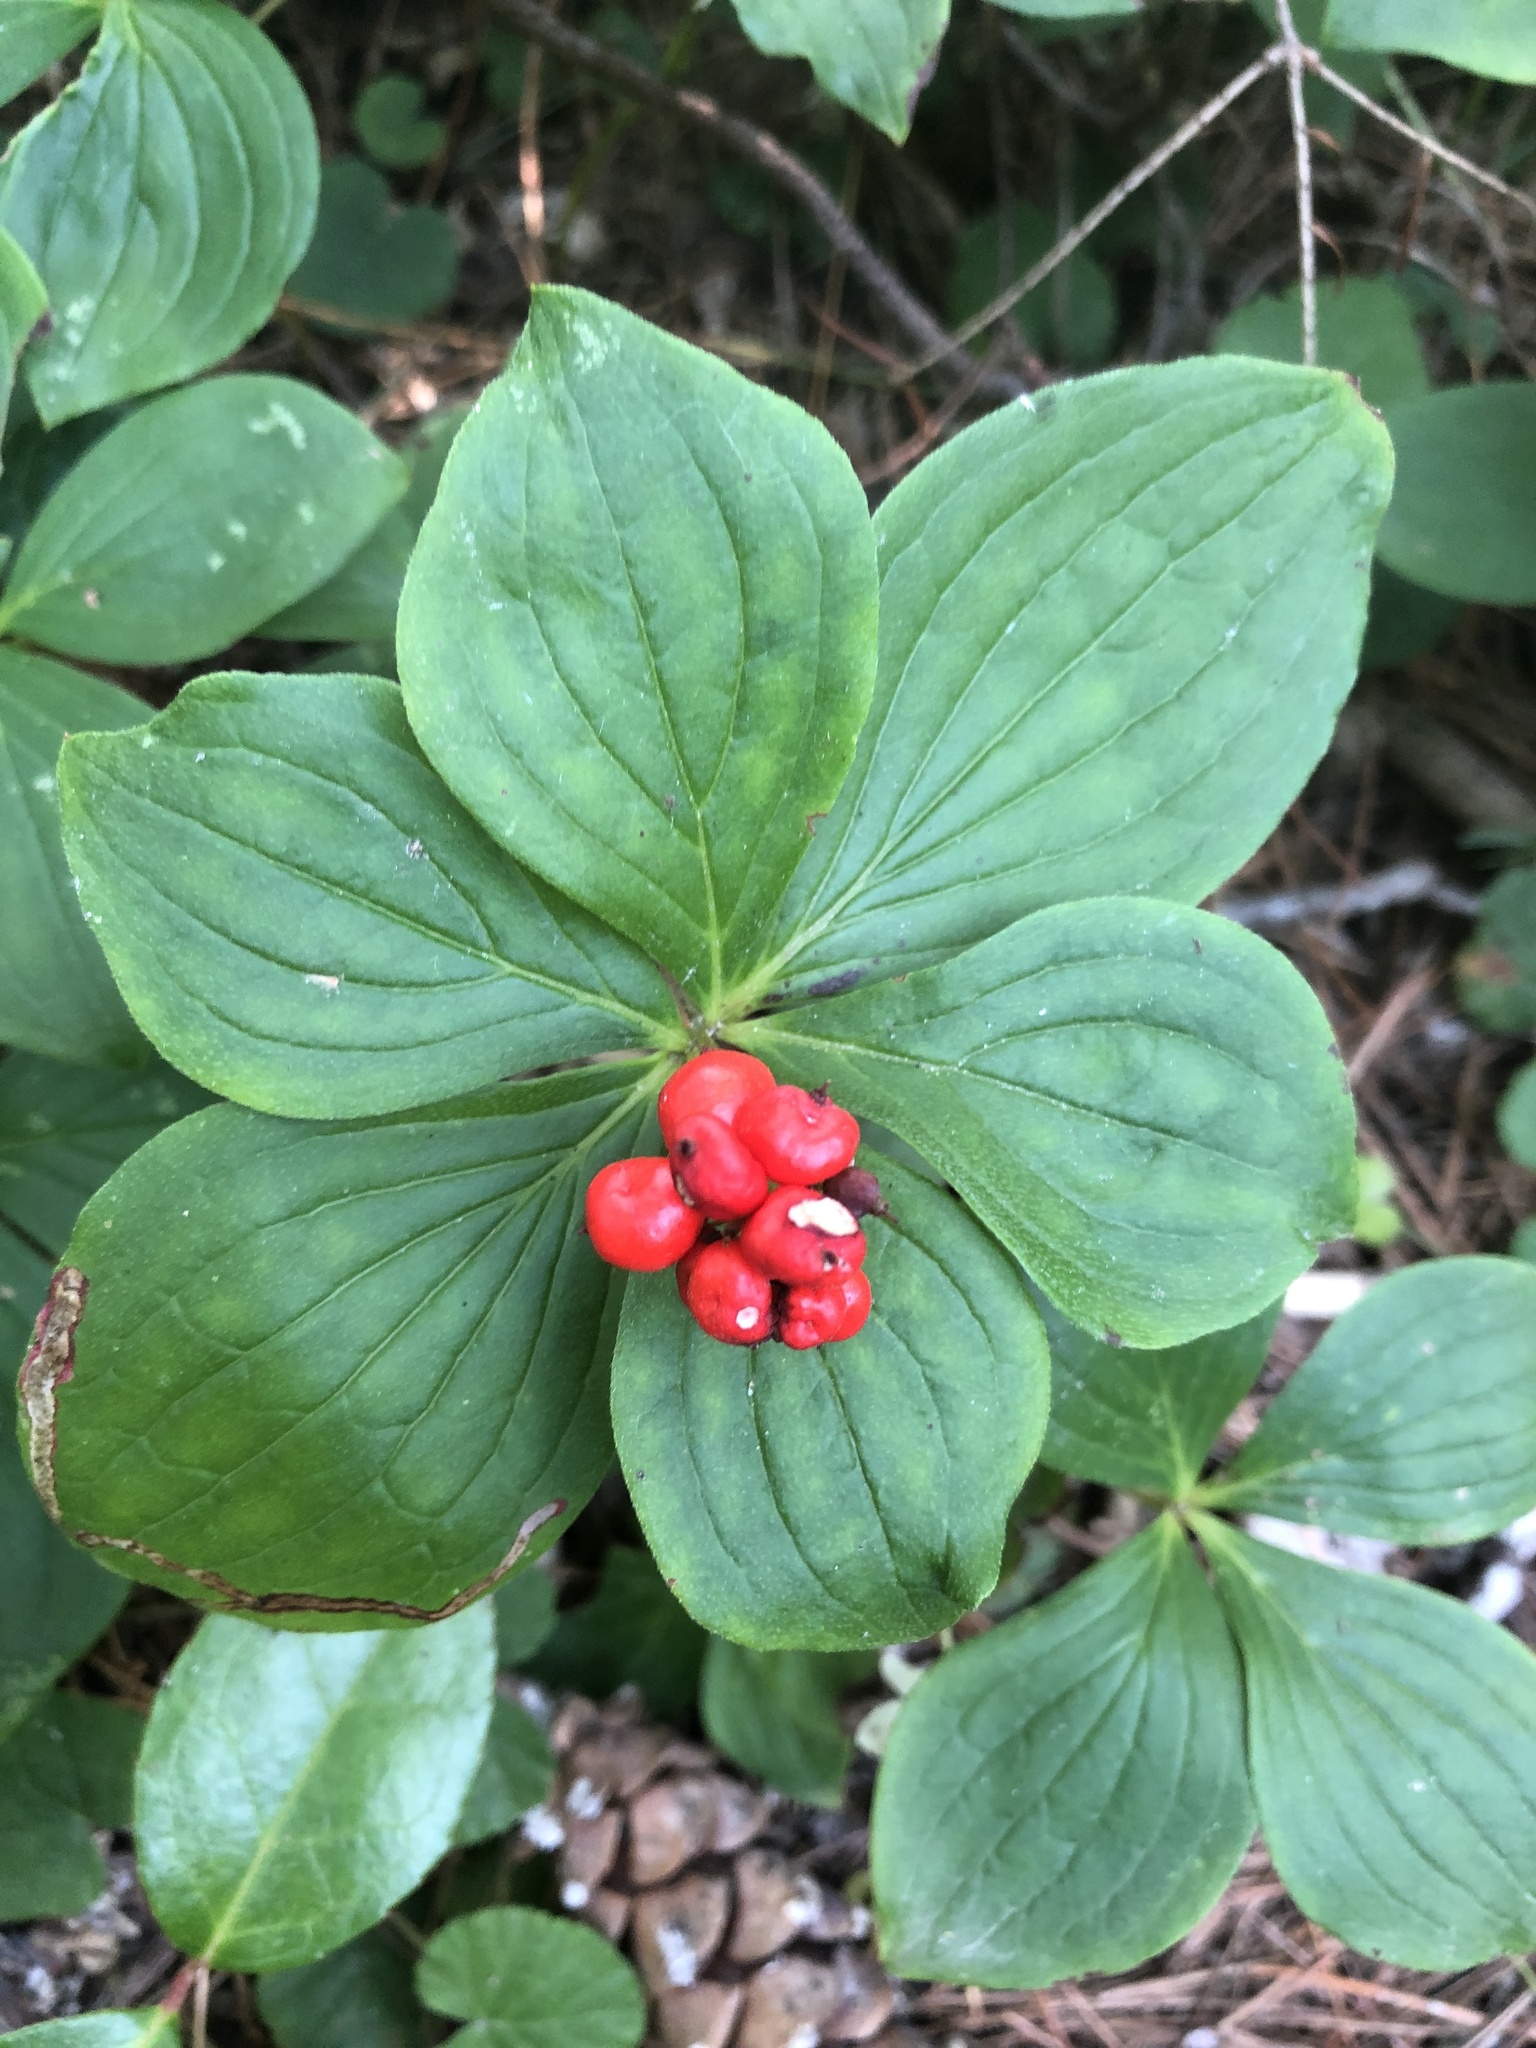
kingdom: Plantae
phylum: Tracheophyta
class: Magnoliopsida
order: Cornales
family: Cornaceae
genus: Cornus
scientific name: Cornus canadensis
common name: Creeping dogwood
